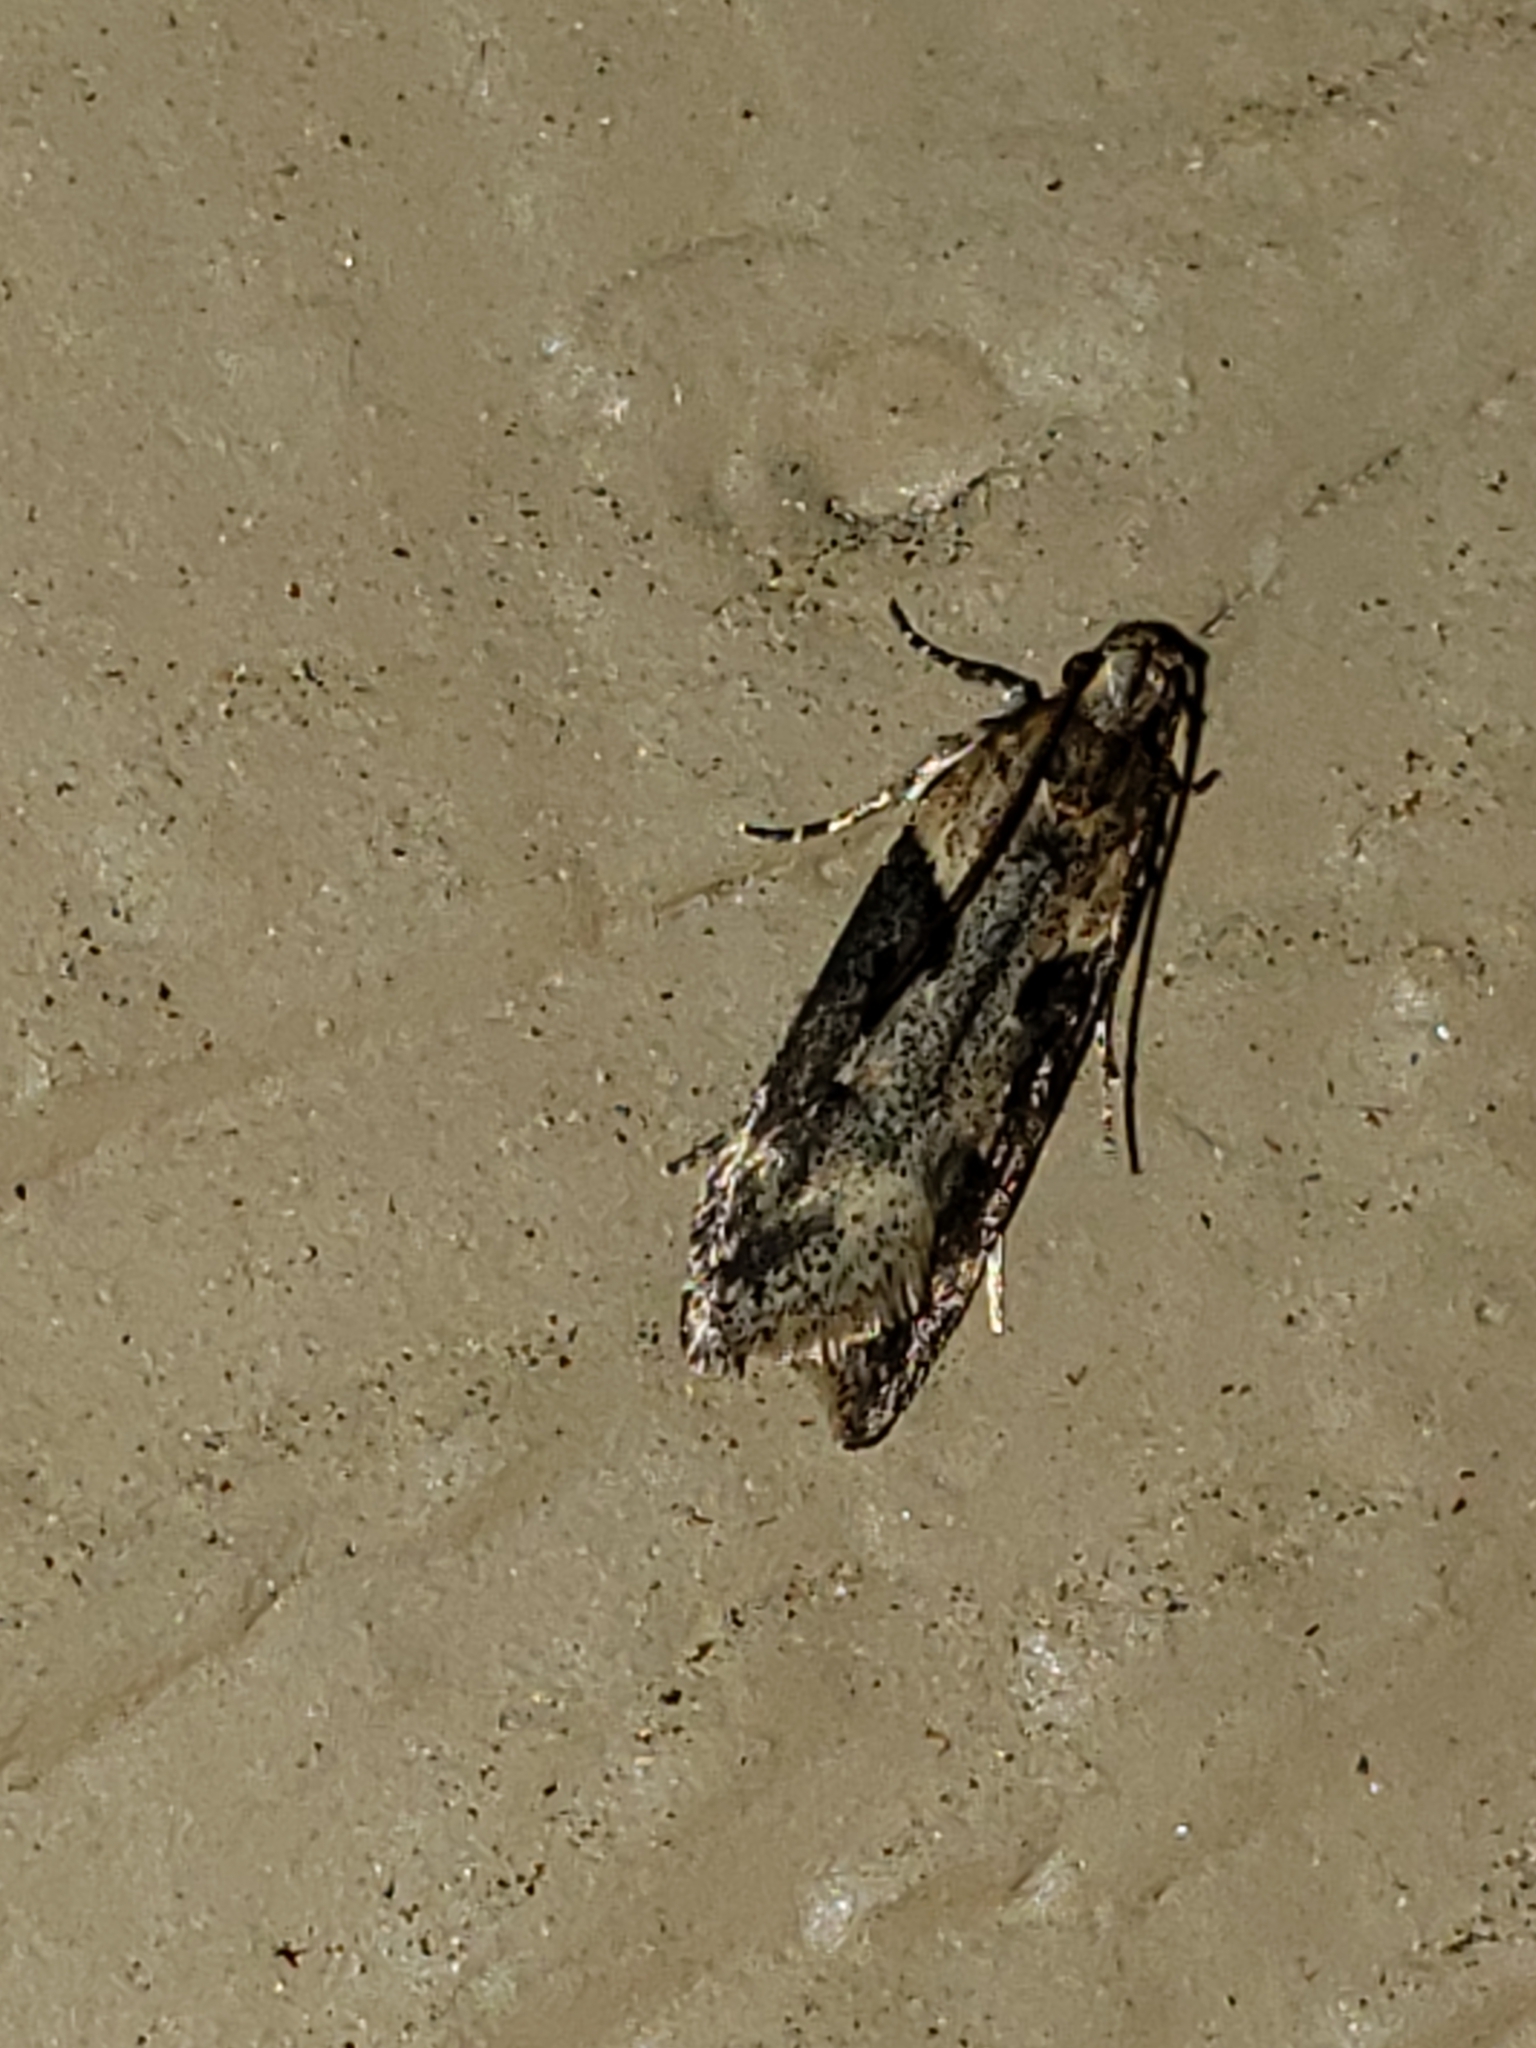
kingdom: Animalia
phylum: Arthropoda
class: Insecta
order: Lepidoptera
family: Gelechiidae
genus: Chionodes
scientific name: Chionodes mediofuscella
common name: Black-smudged chionodes moth
